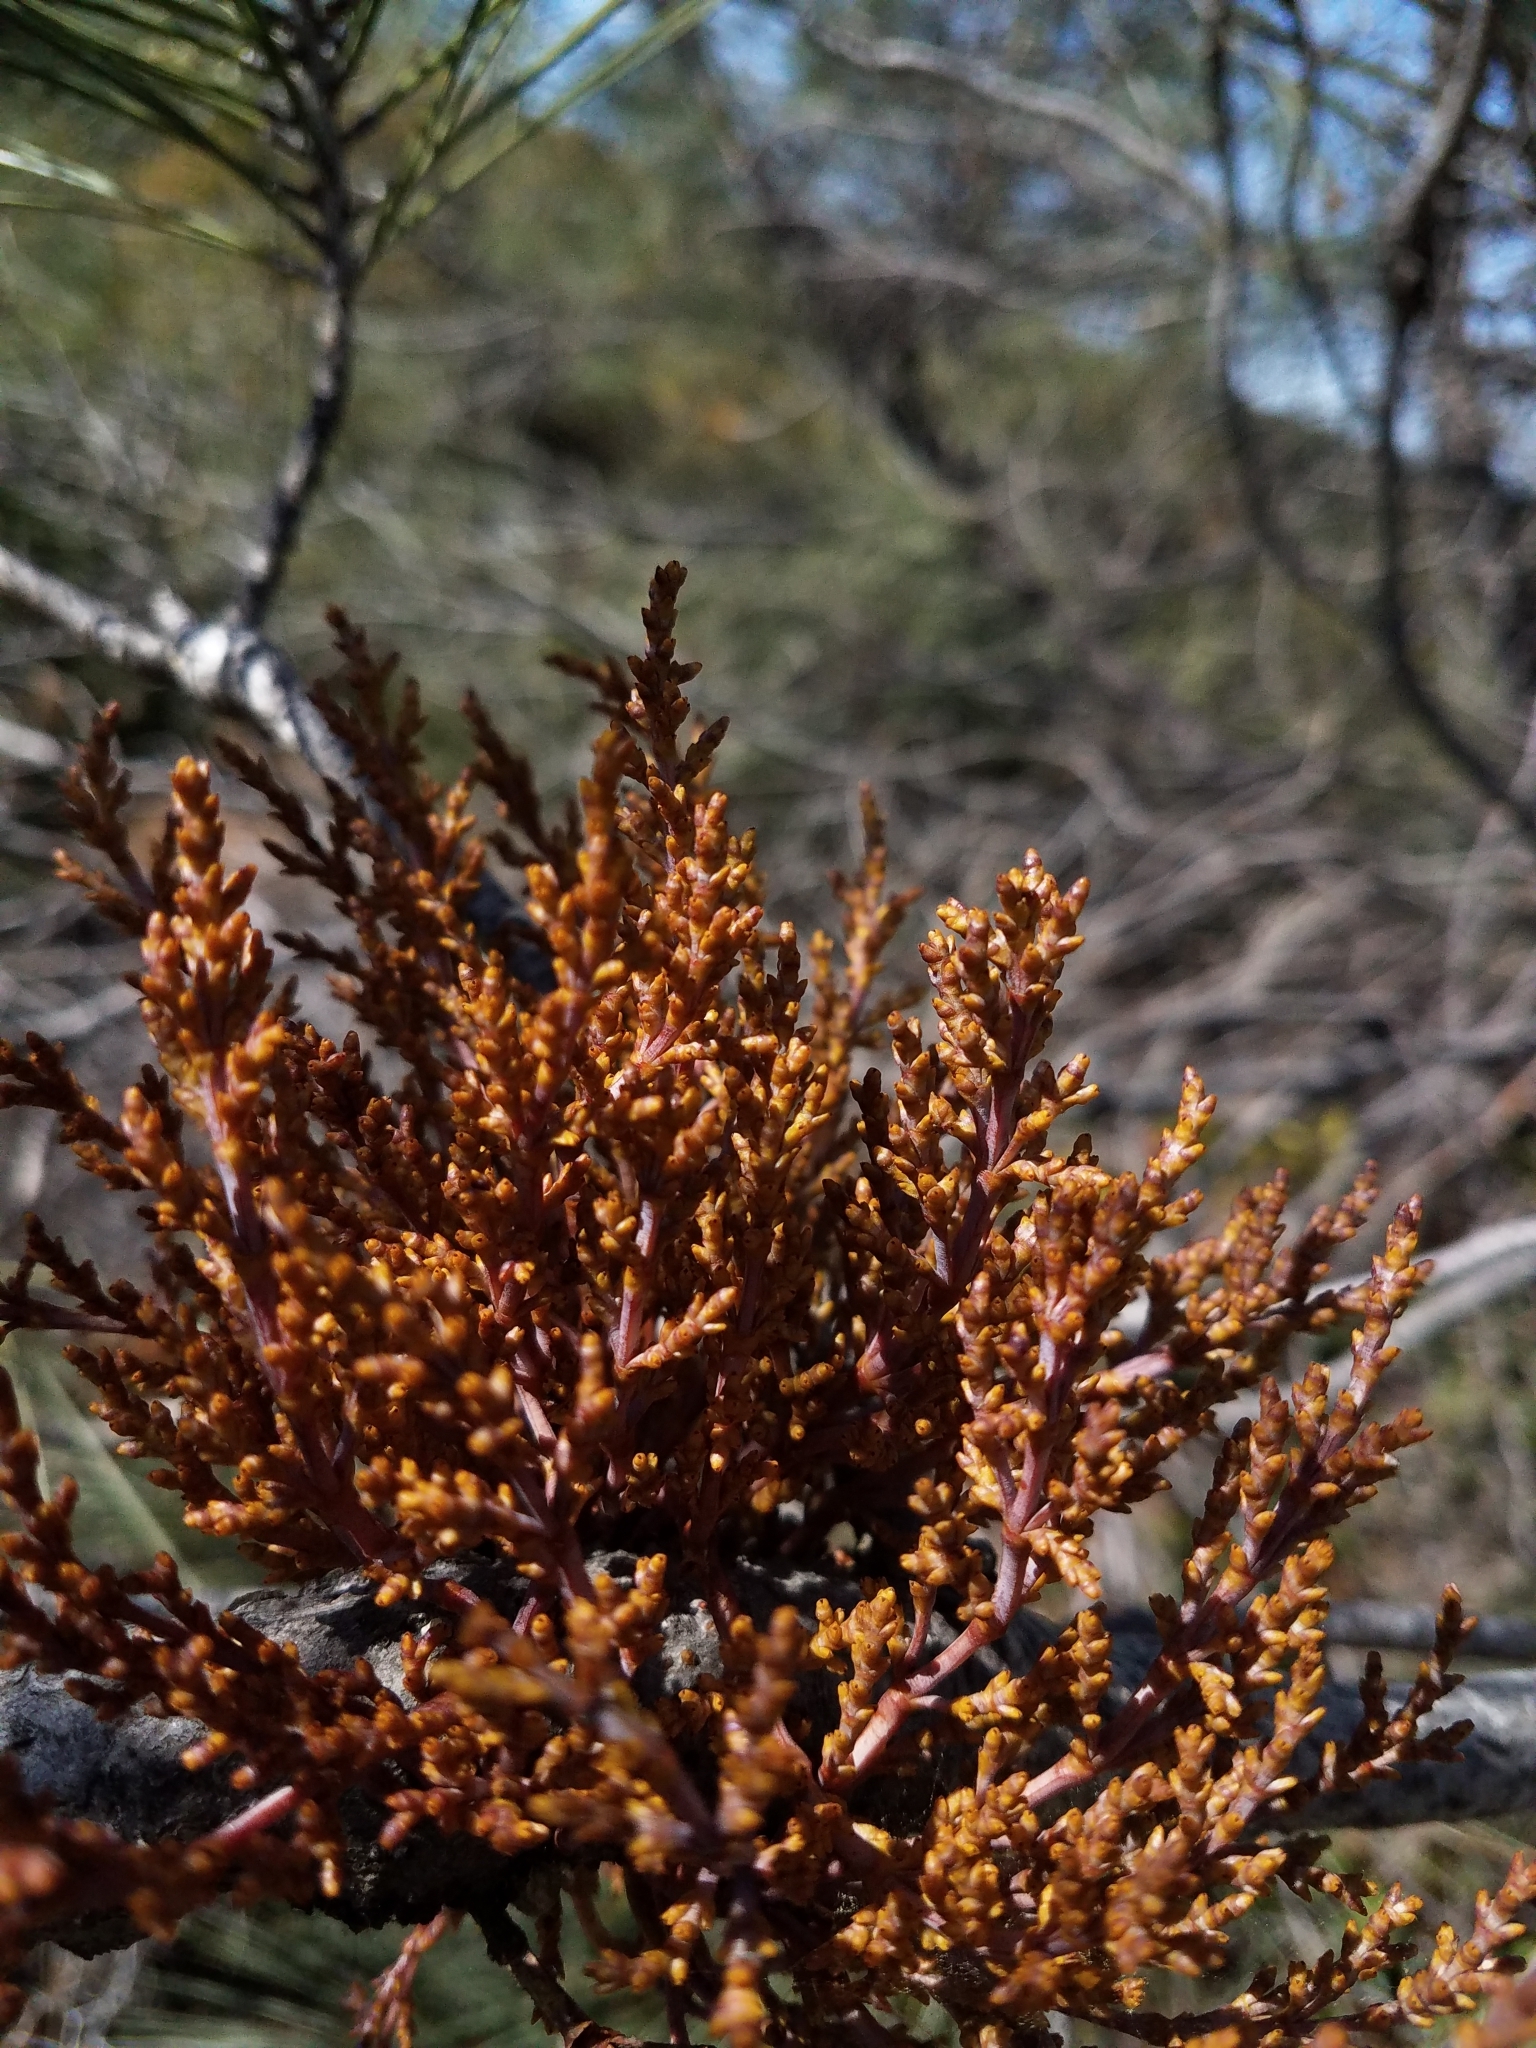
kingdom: Plantae
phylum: Tracheophyta
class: Magnoliopsida
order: Santalales
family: Viscaceae
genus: Arceuthobium
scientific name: Arceuthobium campylopodum
